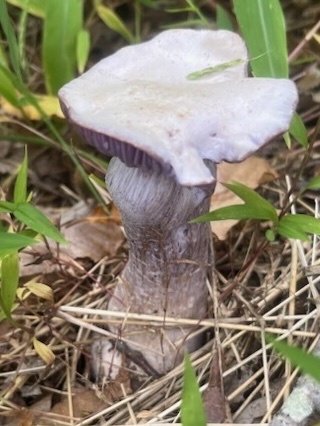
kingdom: Fungi
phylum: Basidiomycota
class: Agaricomycetes
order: Agaricales
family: Hydnangiaceae
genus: Laccaria
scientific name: Laccaria ochropurpurea
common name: Purple laccaria
